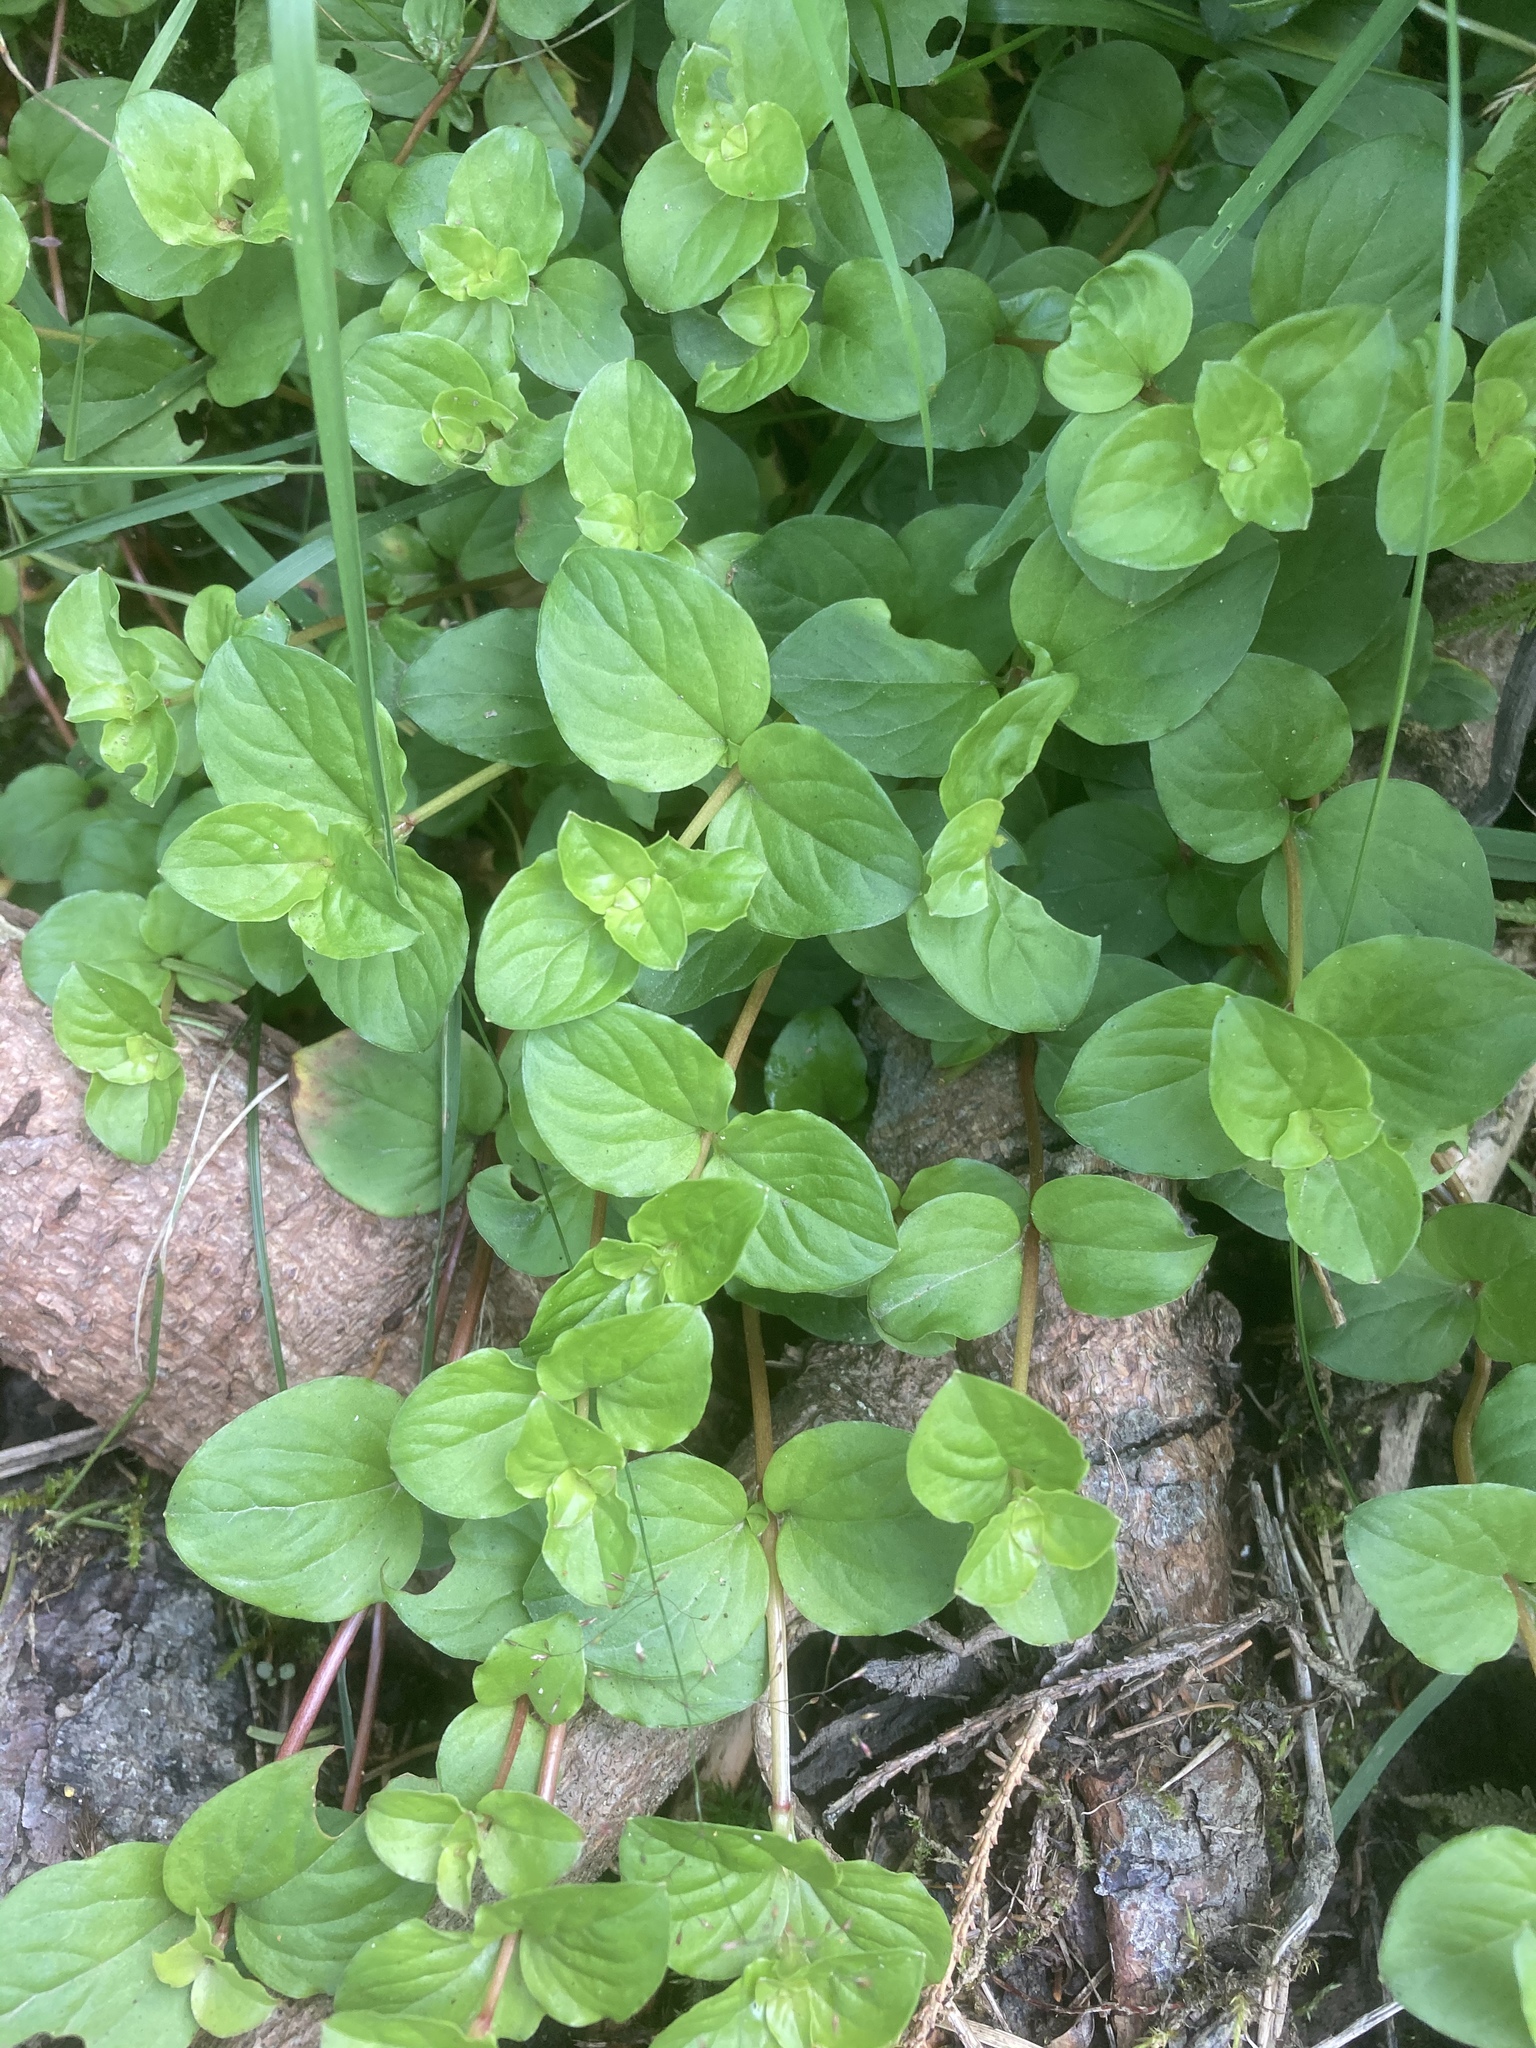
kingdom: Plantae
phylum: Tracheophyta
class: Magnoliopsida
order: Ericales
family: Primulaceae
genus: Lysimachia
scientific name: Lysimachia nemorum
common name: Yellow pimpernel
